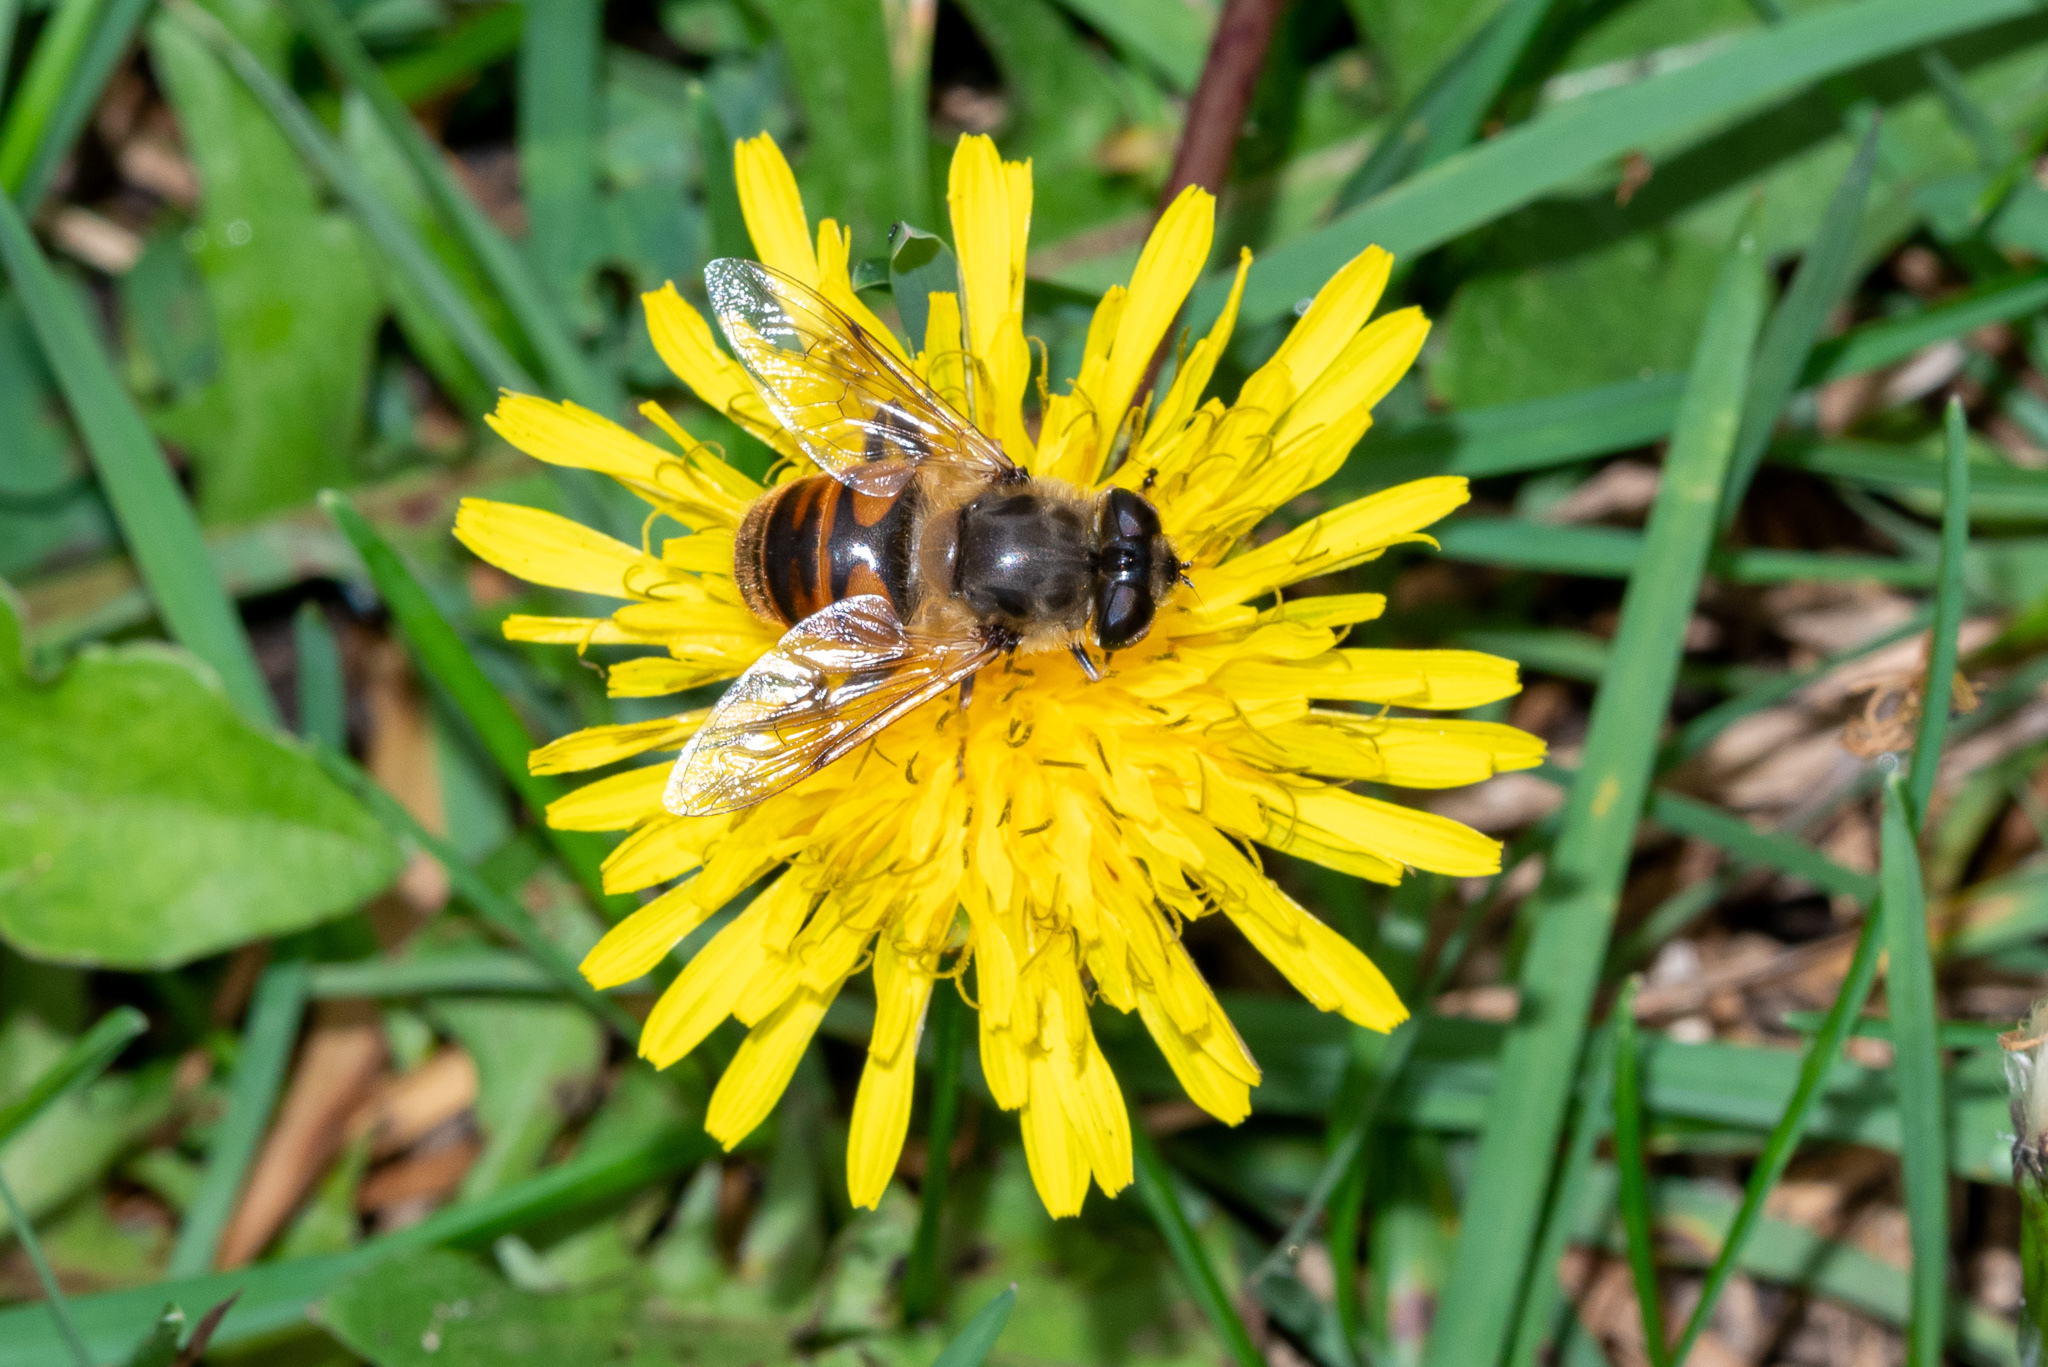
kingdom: Animalia
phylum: Arthropoda
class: Insecta
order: Diptera
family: Syrphidae
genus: Eristalis
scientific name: Eristalis tenax
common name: Drone fly
